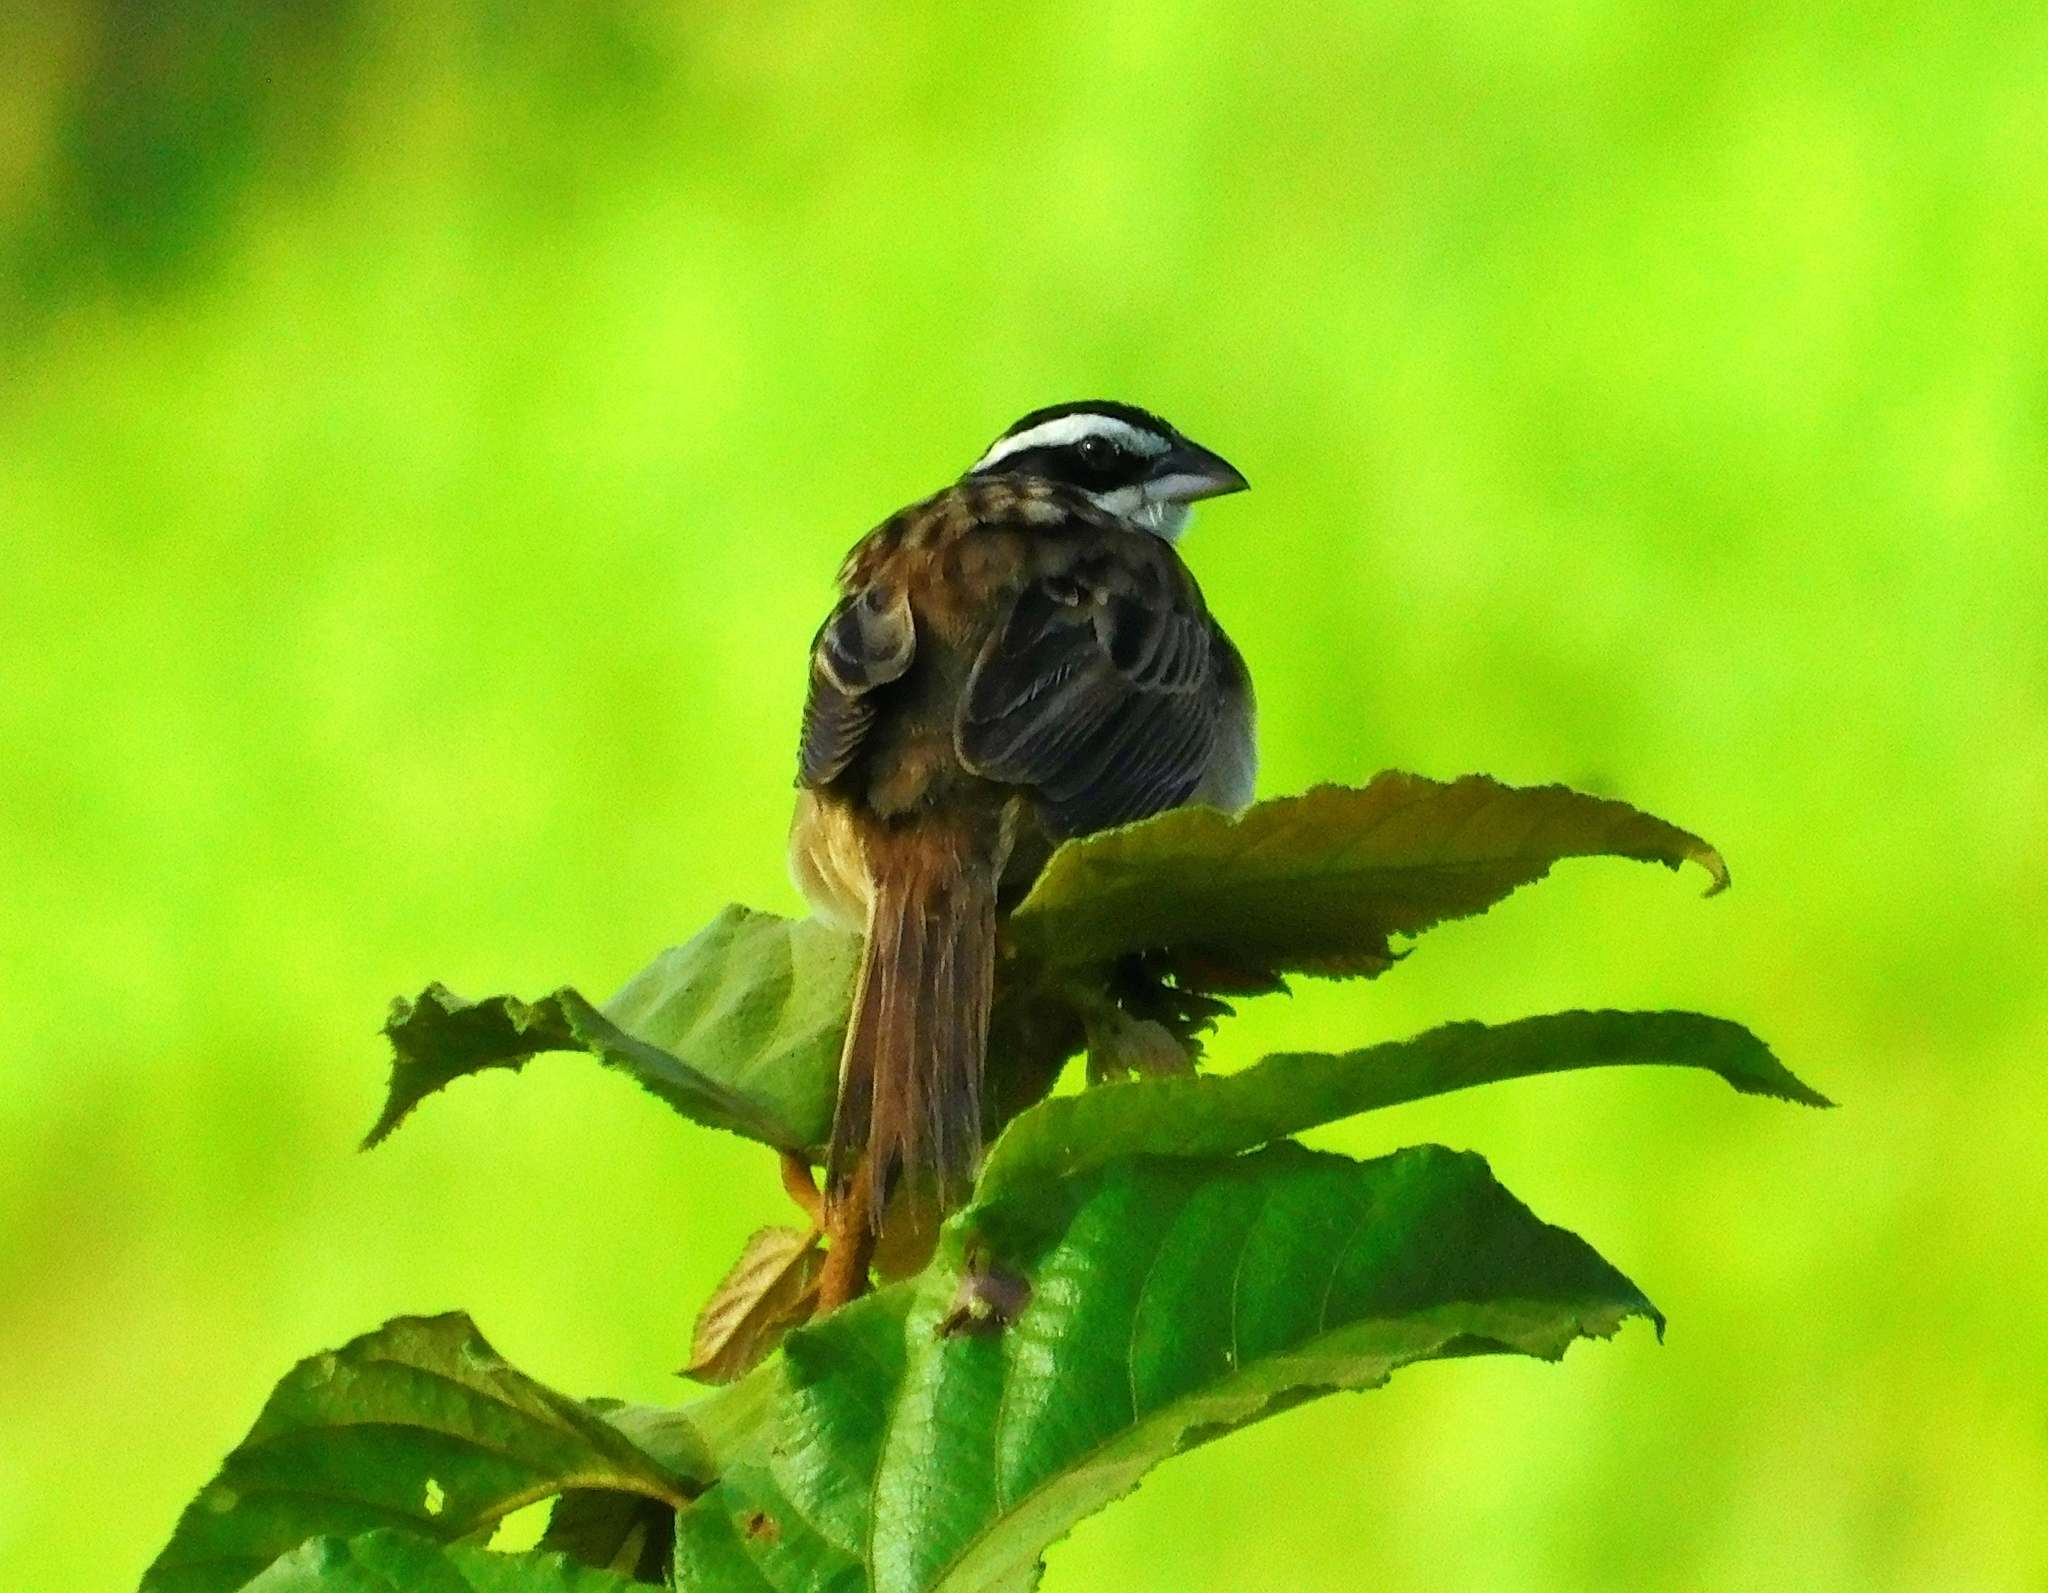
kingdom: Animalia
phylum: Chordata
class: Aves
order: Passeriformes
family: Passerellidae
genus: Peucaea
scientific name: Peucaea ruficauda
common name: Stripe-headed sparrow
